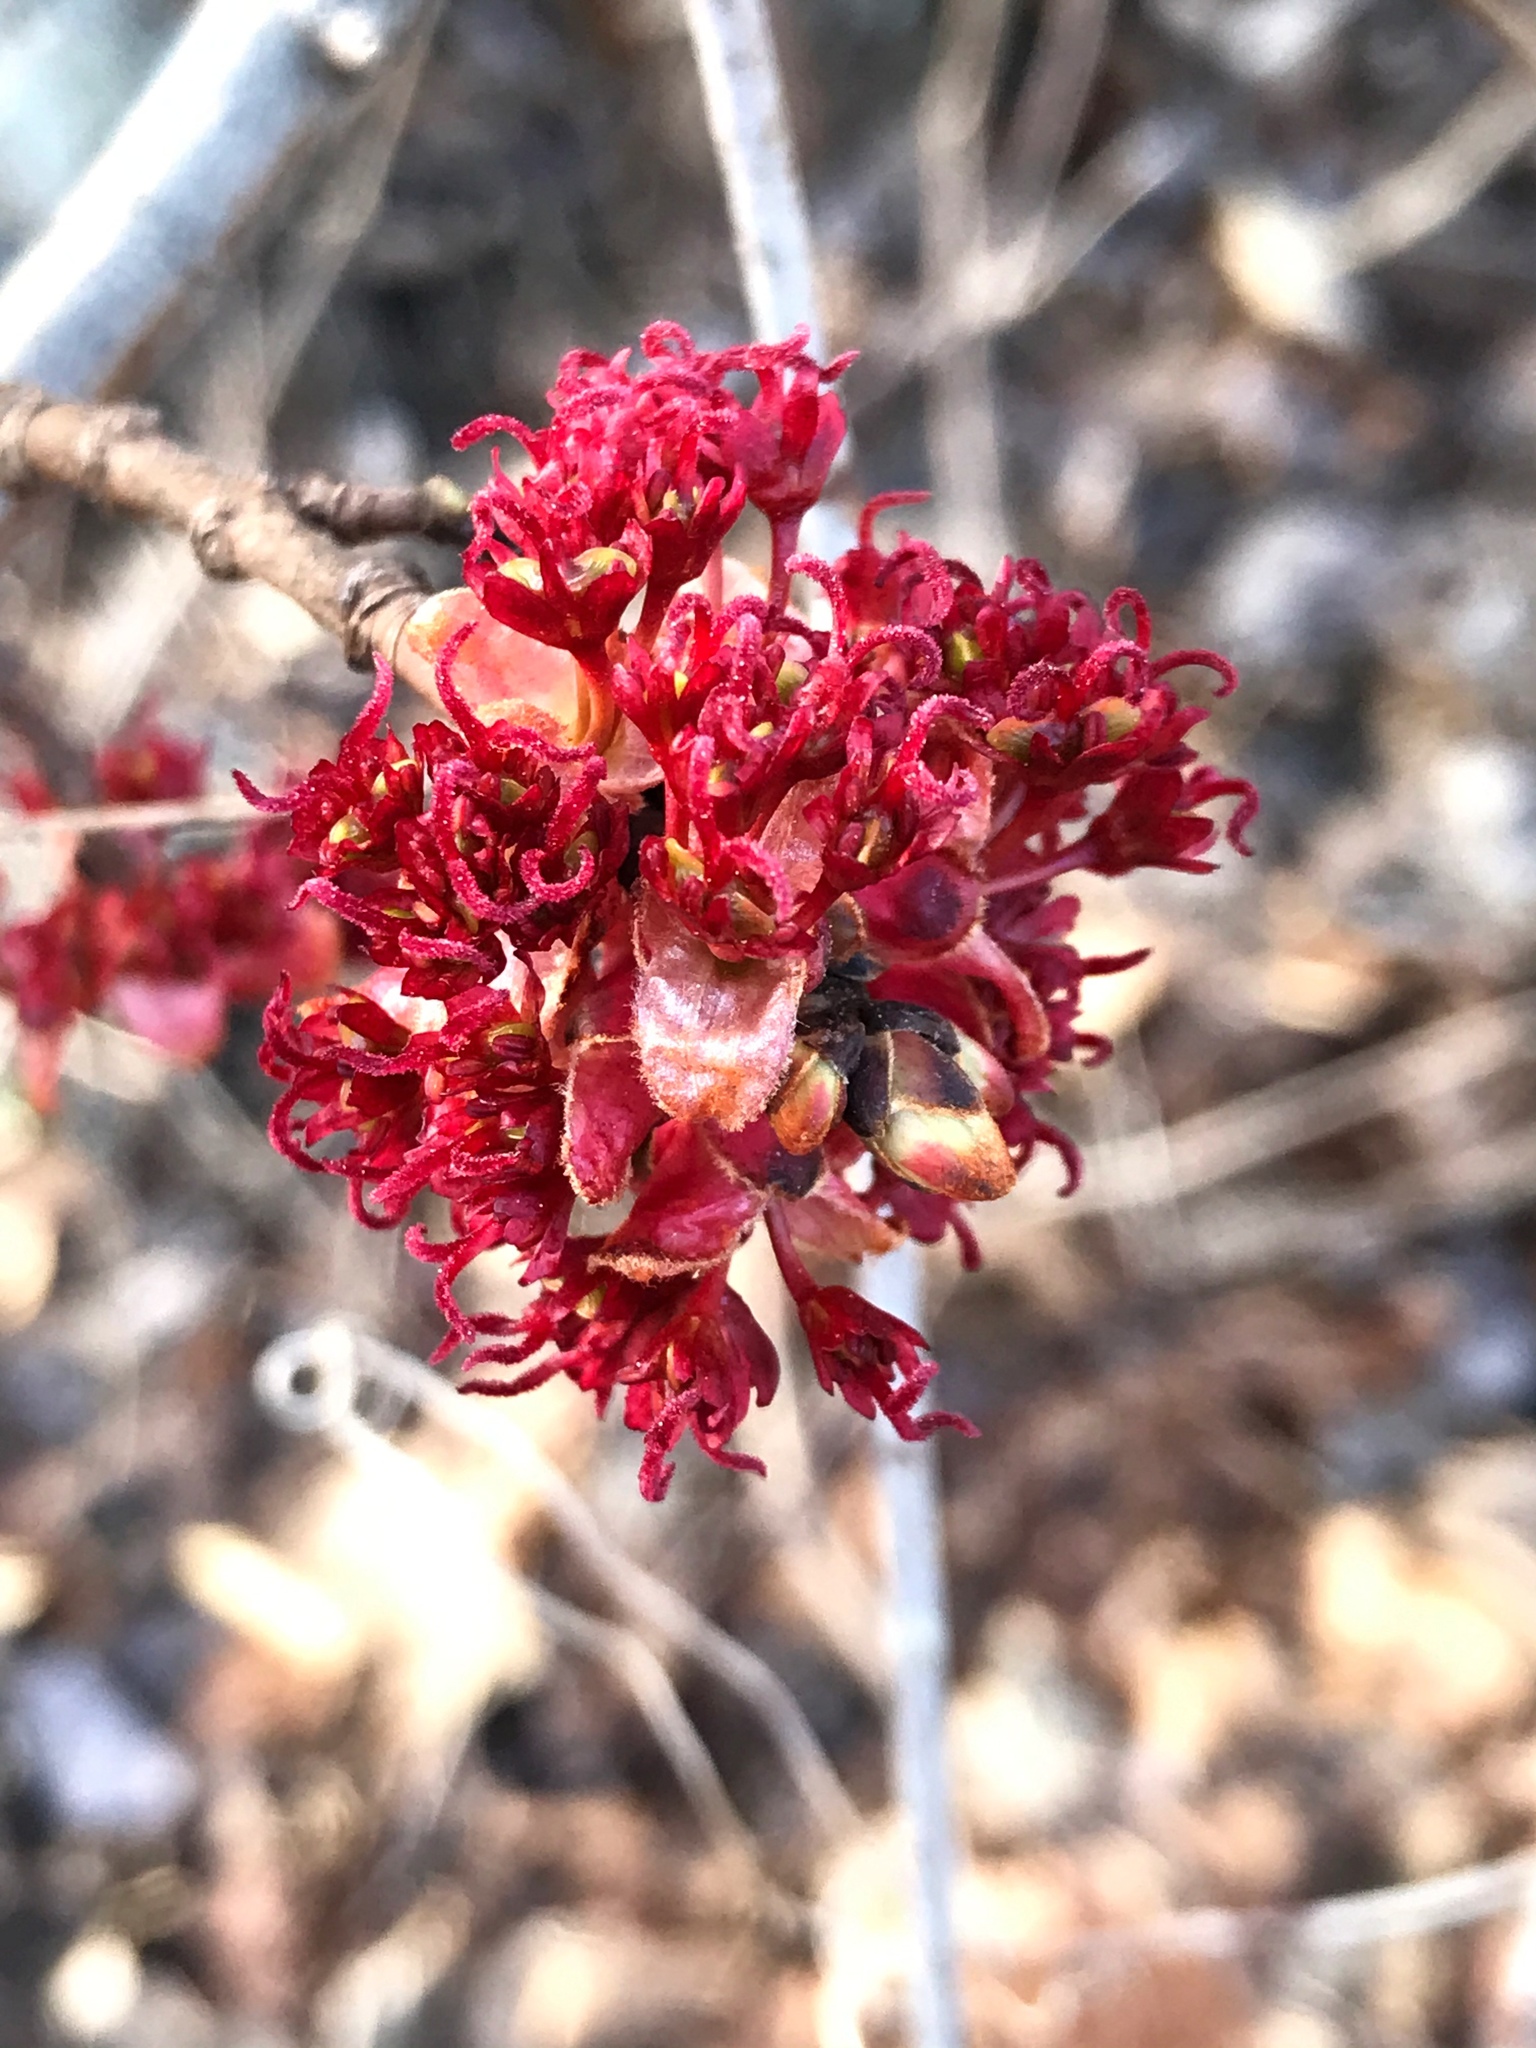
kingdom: Plantae
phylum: Tracheophyta
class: Magnoliopsida
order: Sapindales
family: Sapindaceae
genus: Acer
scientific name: Acer rubrum
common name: Red maple
